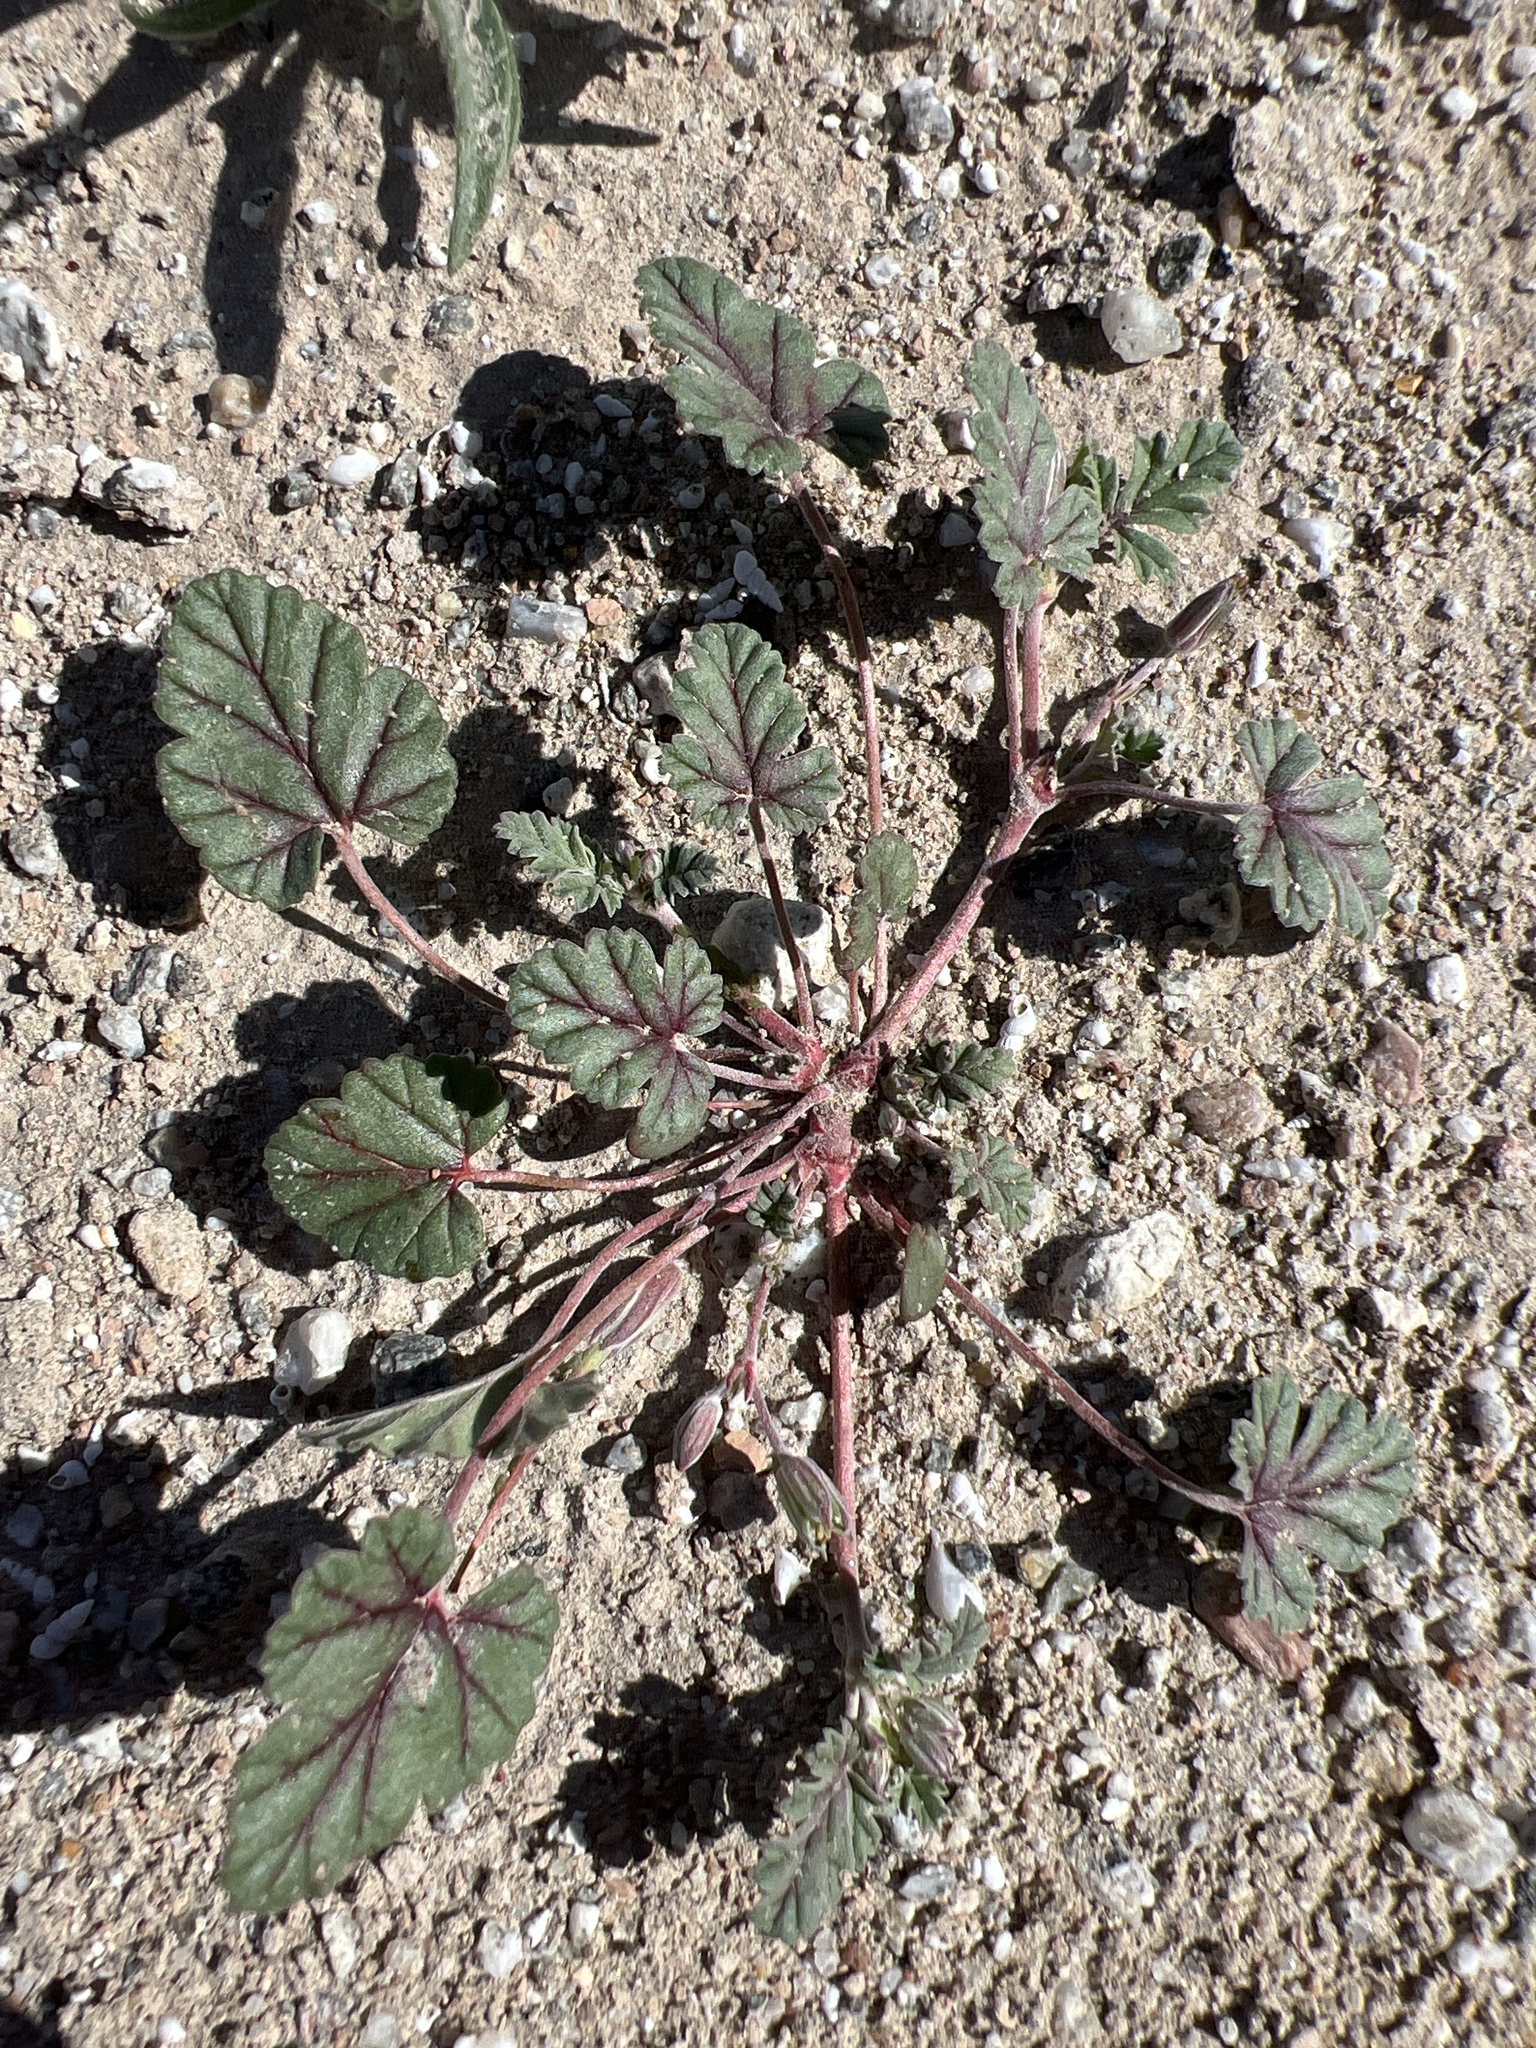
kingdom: Plantae
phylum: Tracheophyta
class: Magnoliopsida
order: Geraniales
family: Geraniaceae
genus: Erodium
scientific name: Erodium texanum
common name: Texas stork's-bill
